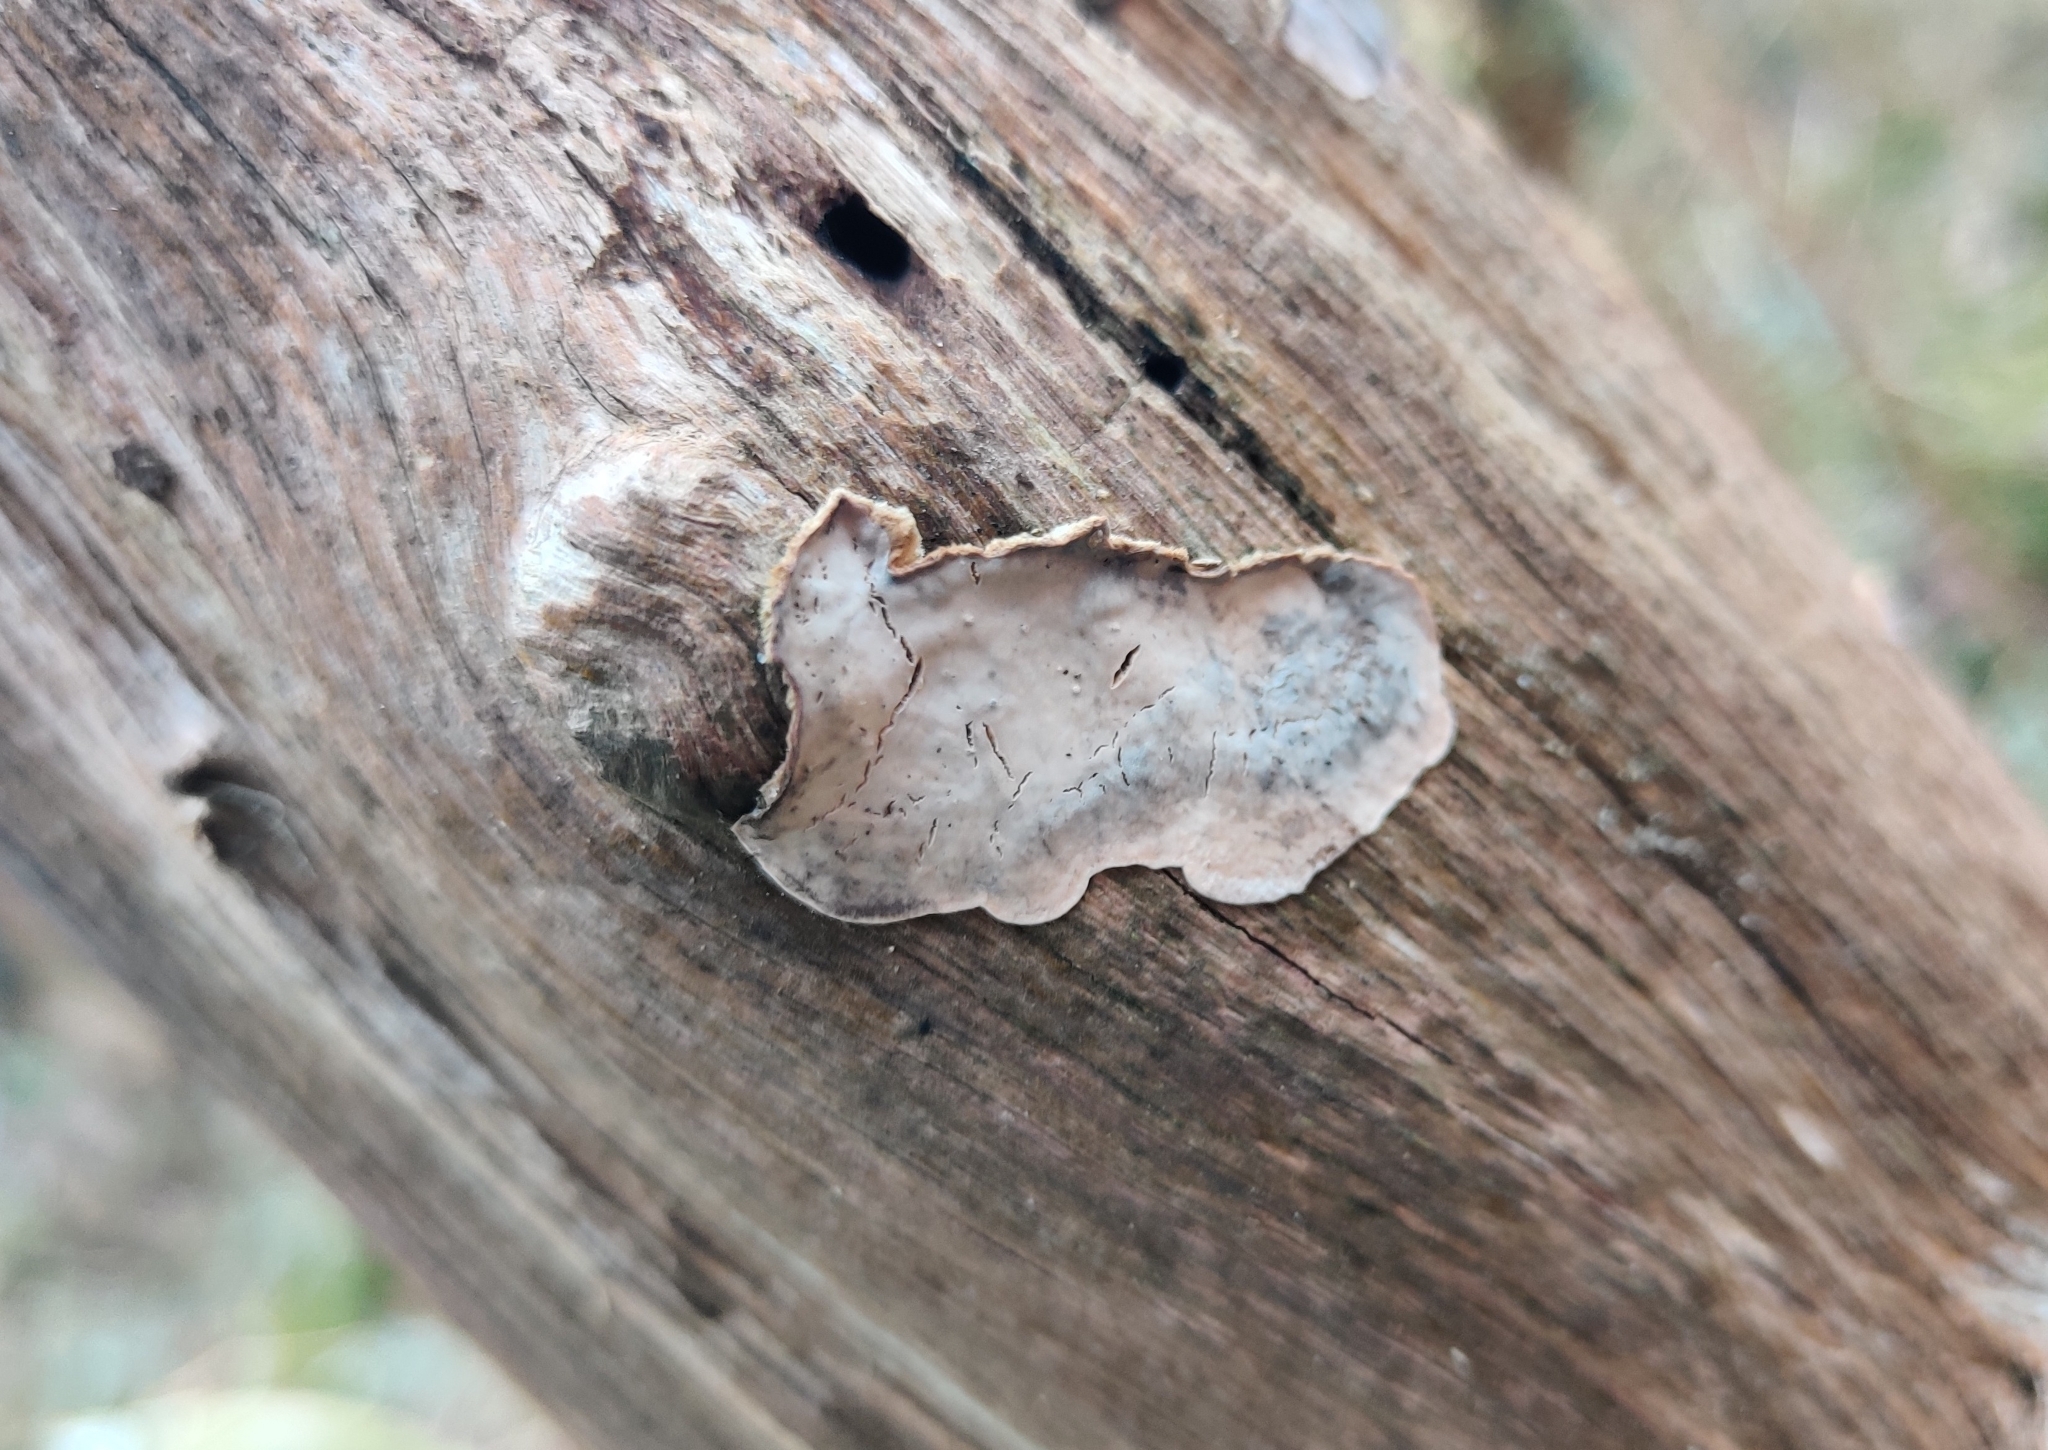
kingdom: Fungi
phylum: Basidiomycota
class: Agaricomycetes
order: Russulales
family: Stereaceae
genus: Stereum
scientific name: Stereum
